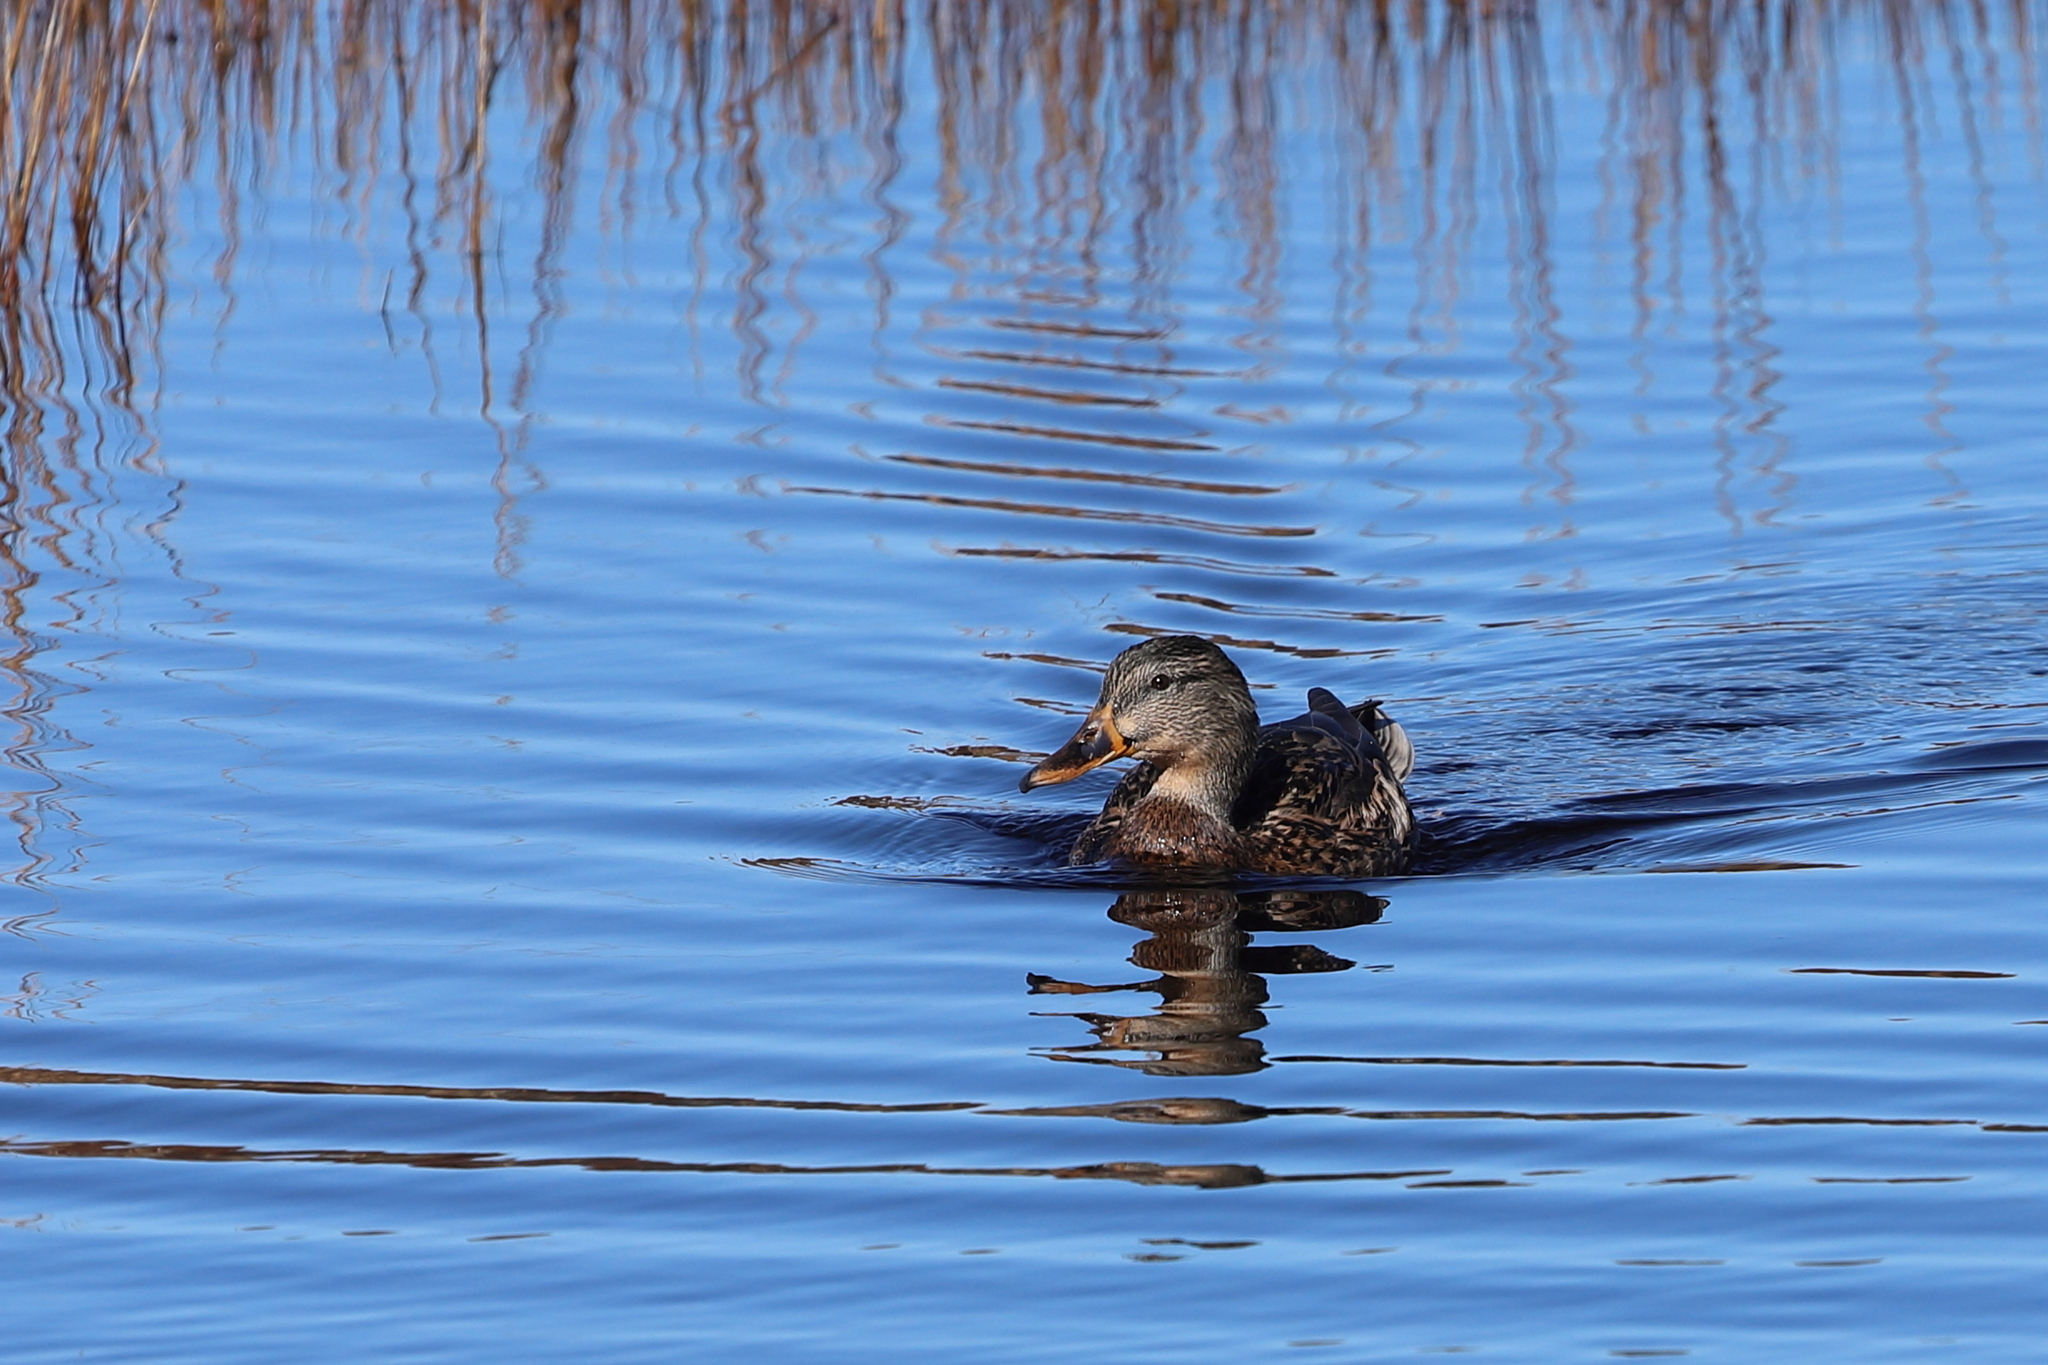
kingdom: Animalia
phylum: Chordata
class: Aves
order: Anseriformes
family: Anatidae
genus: Anas
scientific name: Anas platyrhynchos
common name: Mallard
